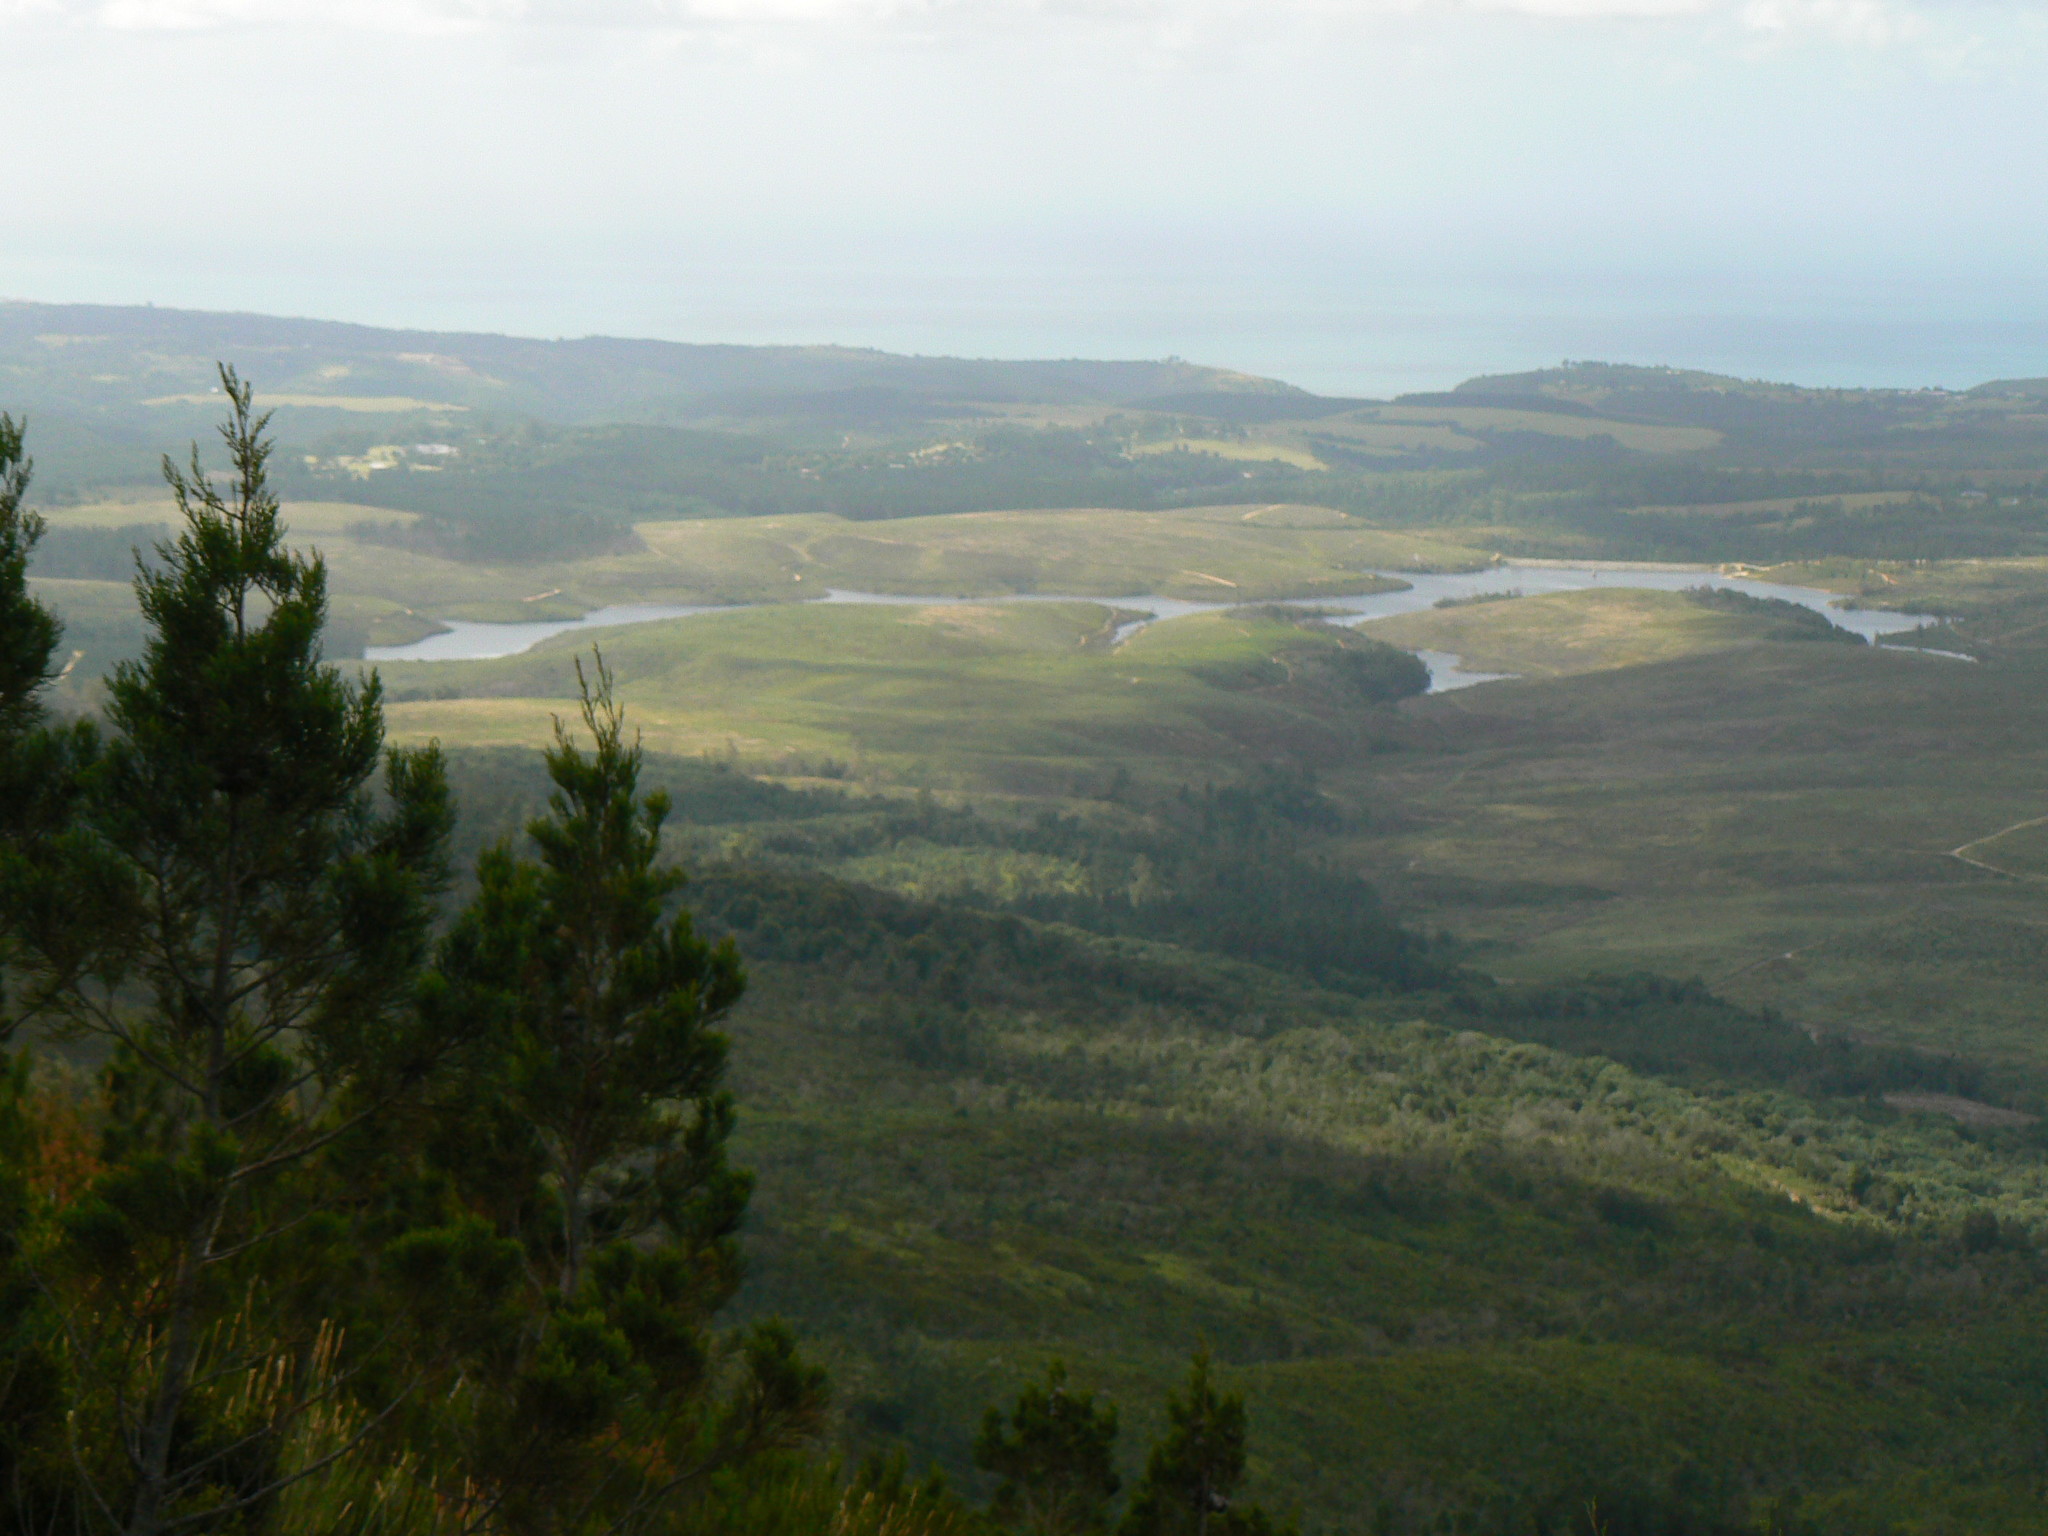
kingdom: Plantae
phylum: Tracheophyta
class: Pinopsida
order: Pinales
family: Cupressaceae
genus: Widdringtonia
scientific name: Widdringtonia nodiflora
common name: Cape cypress
